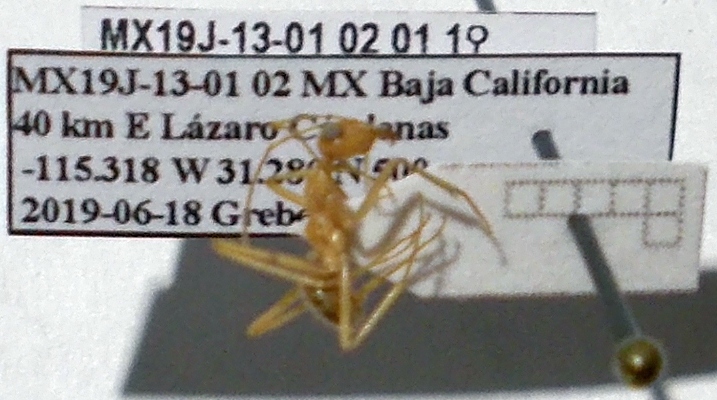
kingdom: Animalia
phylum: Arthropoda
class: Insecta
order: Hymenoptera
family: Formicidae
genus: Myrmecocystus
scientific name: Myrmecocystus mexicanus
